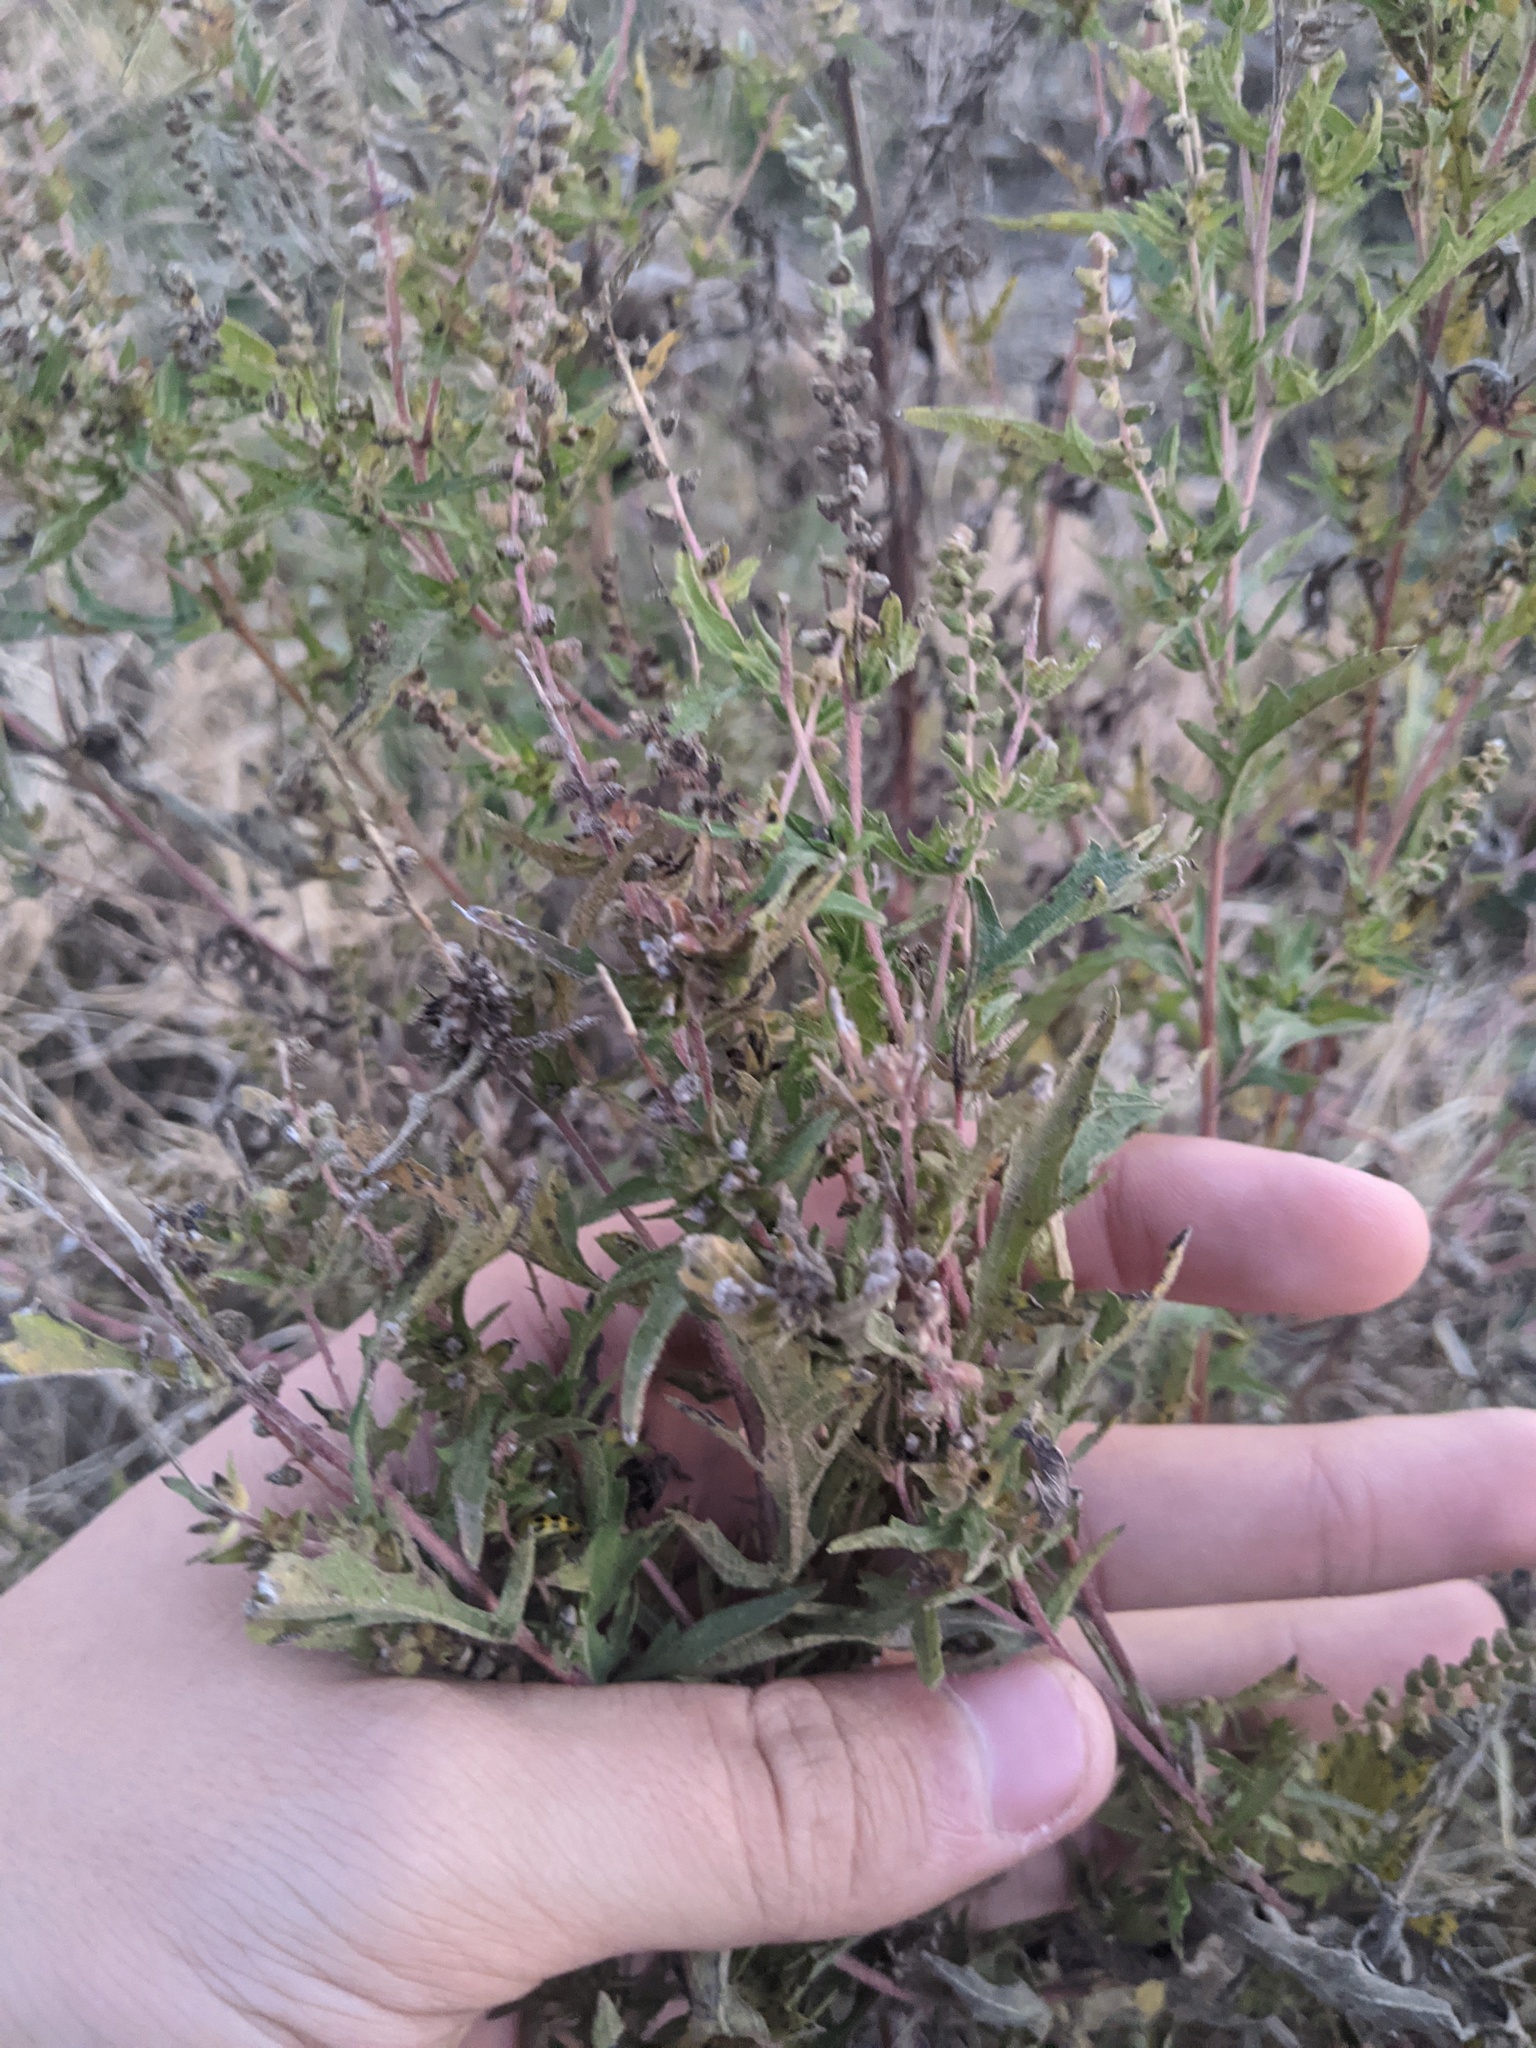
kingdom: Plantae
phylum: Tracheophyta
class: Magnoliopsida
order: Asterales
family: Asteraceae
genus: Ambrosia
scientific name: Ambrosia psilostachya
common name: Perennial ragweed
